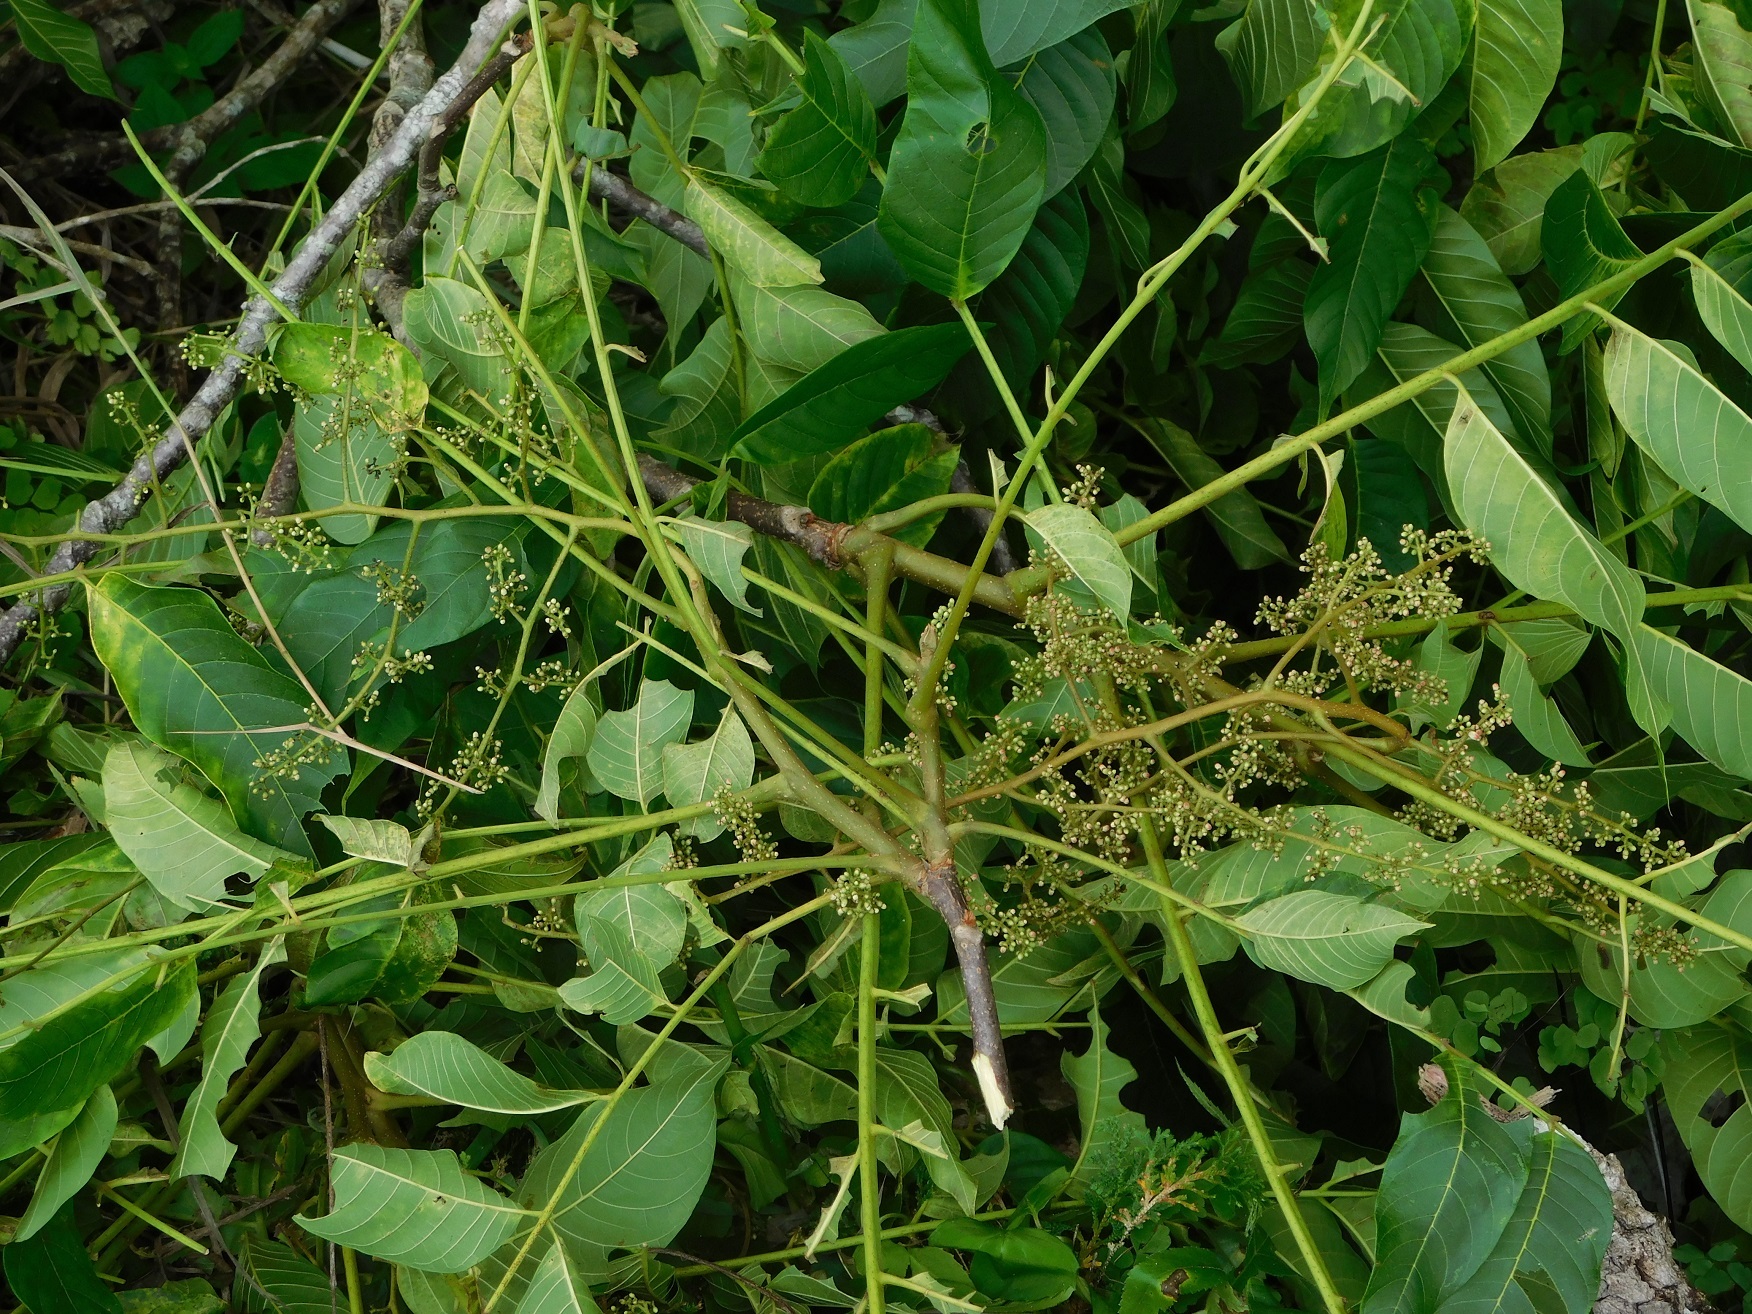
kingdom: Plantae
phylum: Tracheophyta
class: Magnoliopsida
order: Sapindales
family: Meliaceae
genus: Cedrela
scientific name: Cedrela salvadorensis
